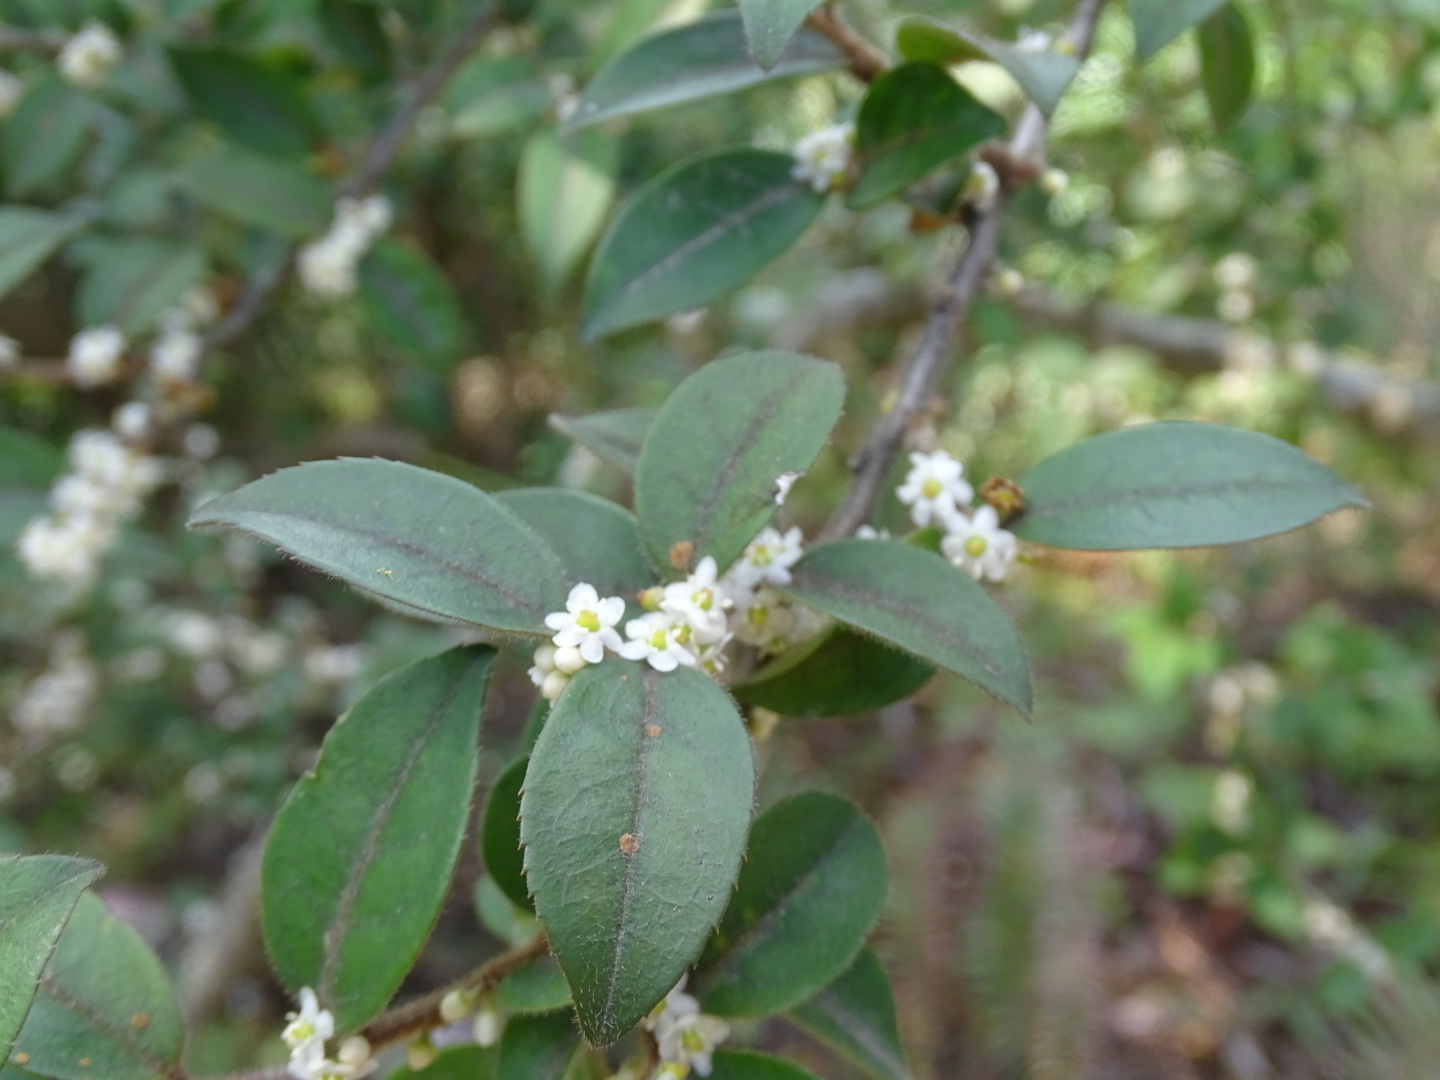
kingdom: Plantae
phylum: Tracheophyta
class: Magnoliopsida
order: Aquifoliales
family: Aquifoliaceae
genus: Ilex
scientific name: Ilex pubescens
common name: Pubescent holly
